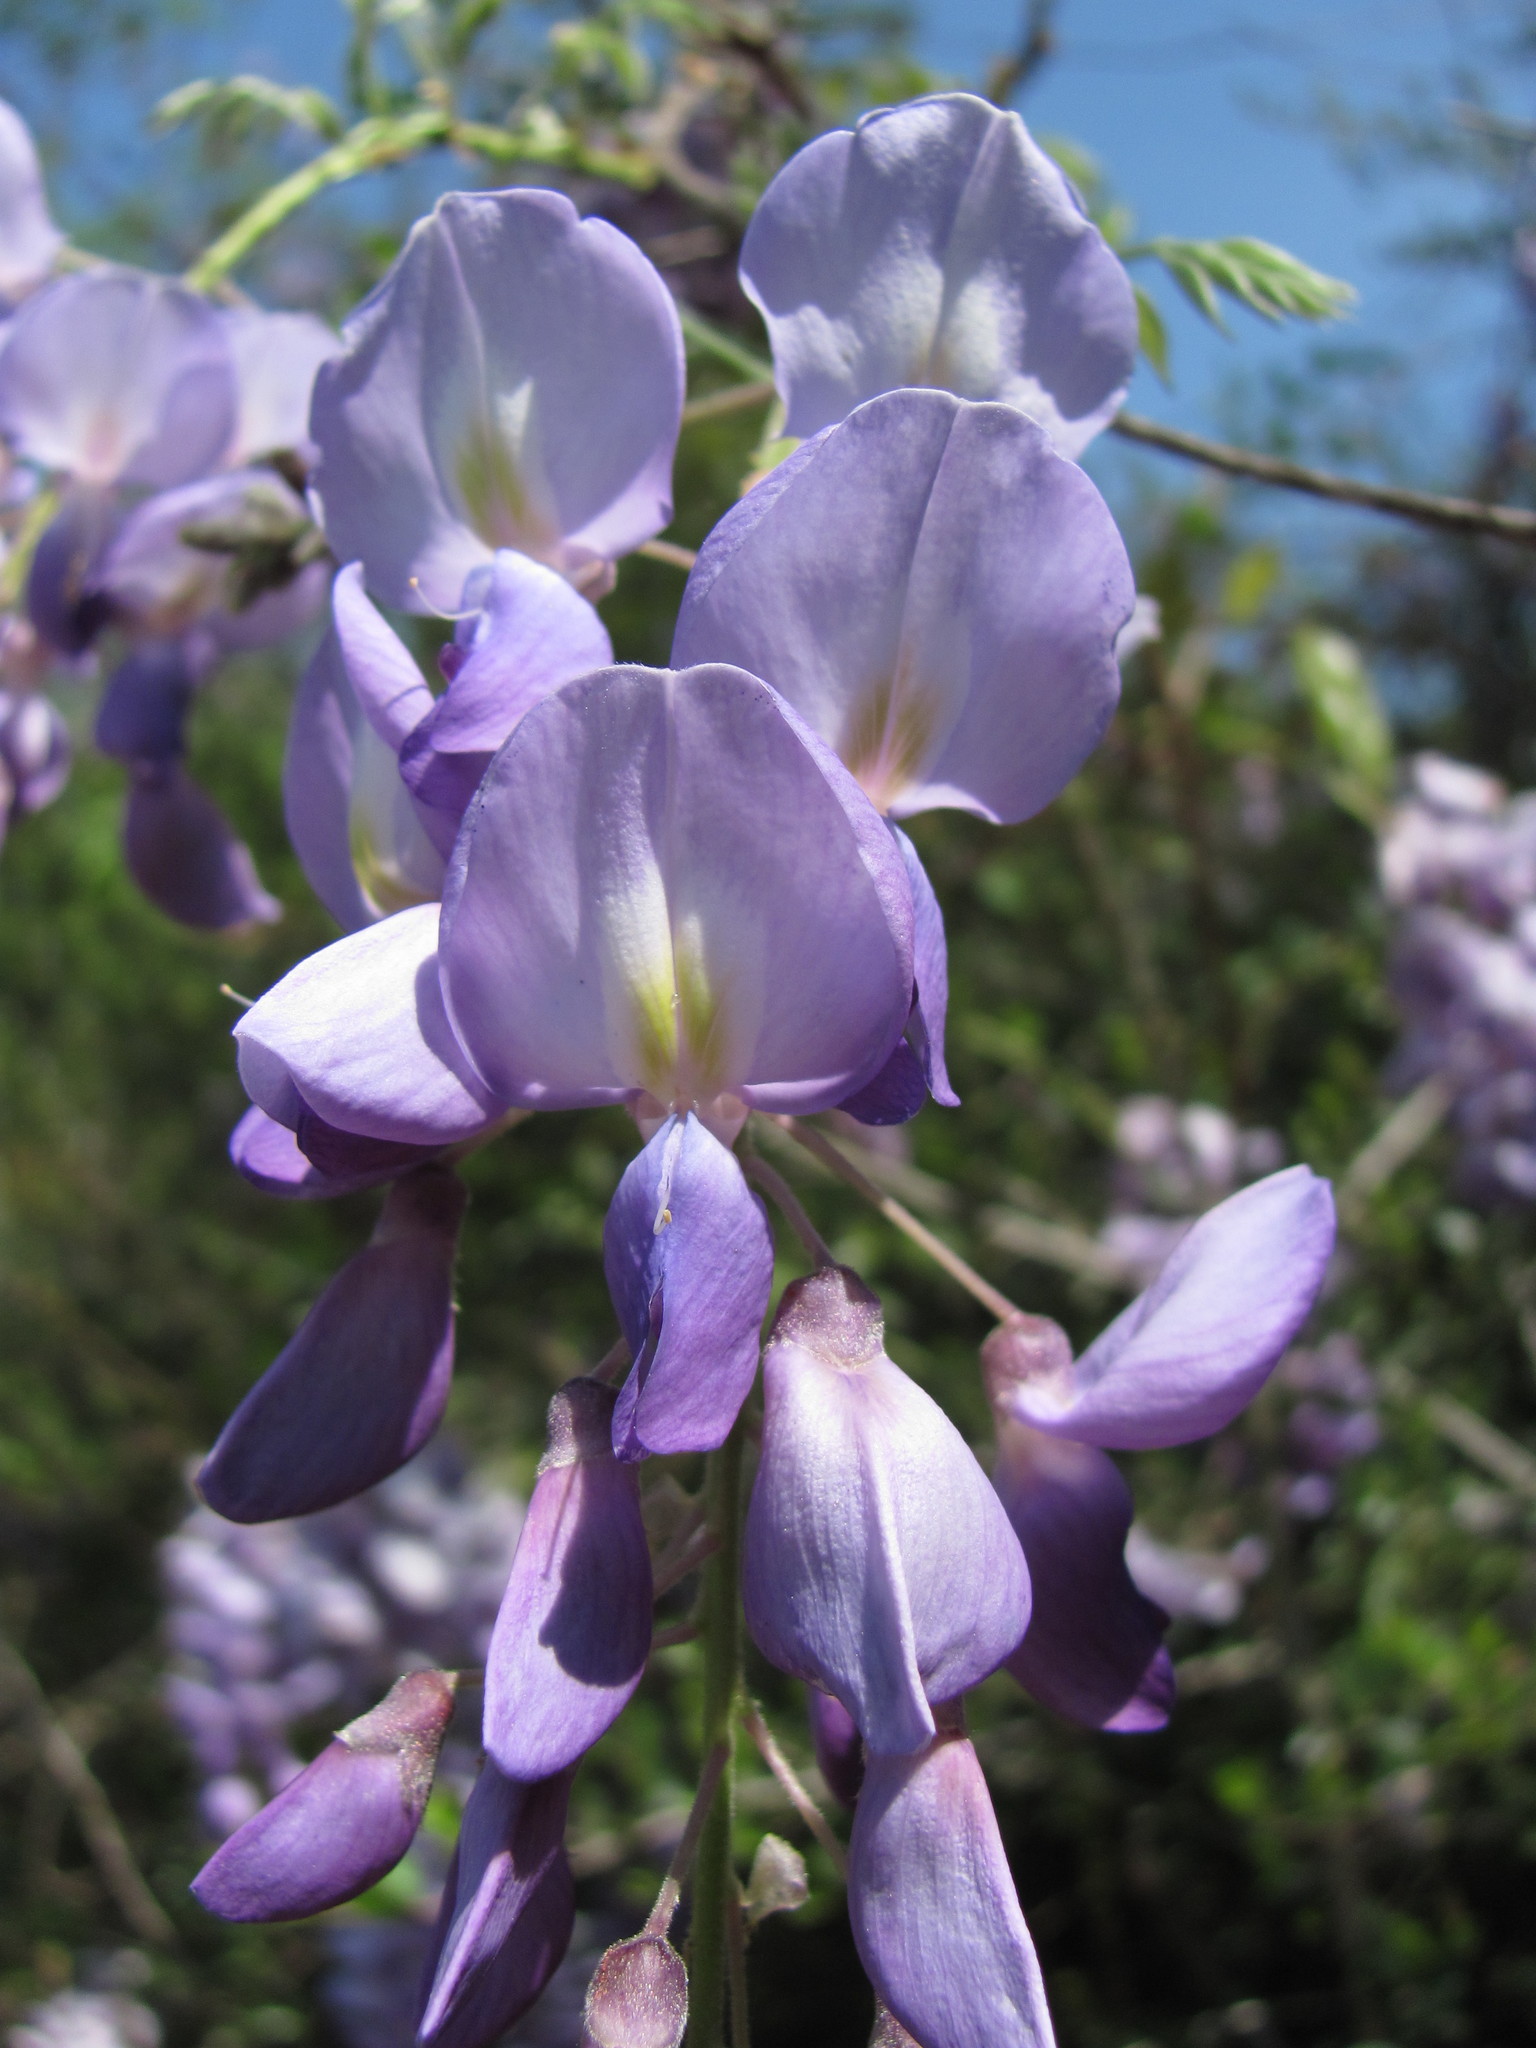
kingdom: Plantae
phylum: Tracheophyta
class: Magnoliopsida
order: Fabales
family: Fabaceae
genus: Wisteria
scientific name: Wisteria sinensis
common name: Chinese wisteria
